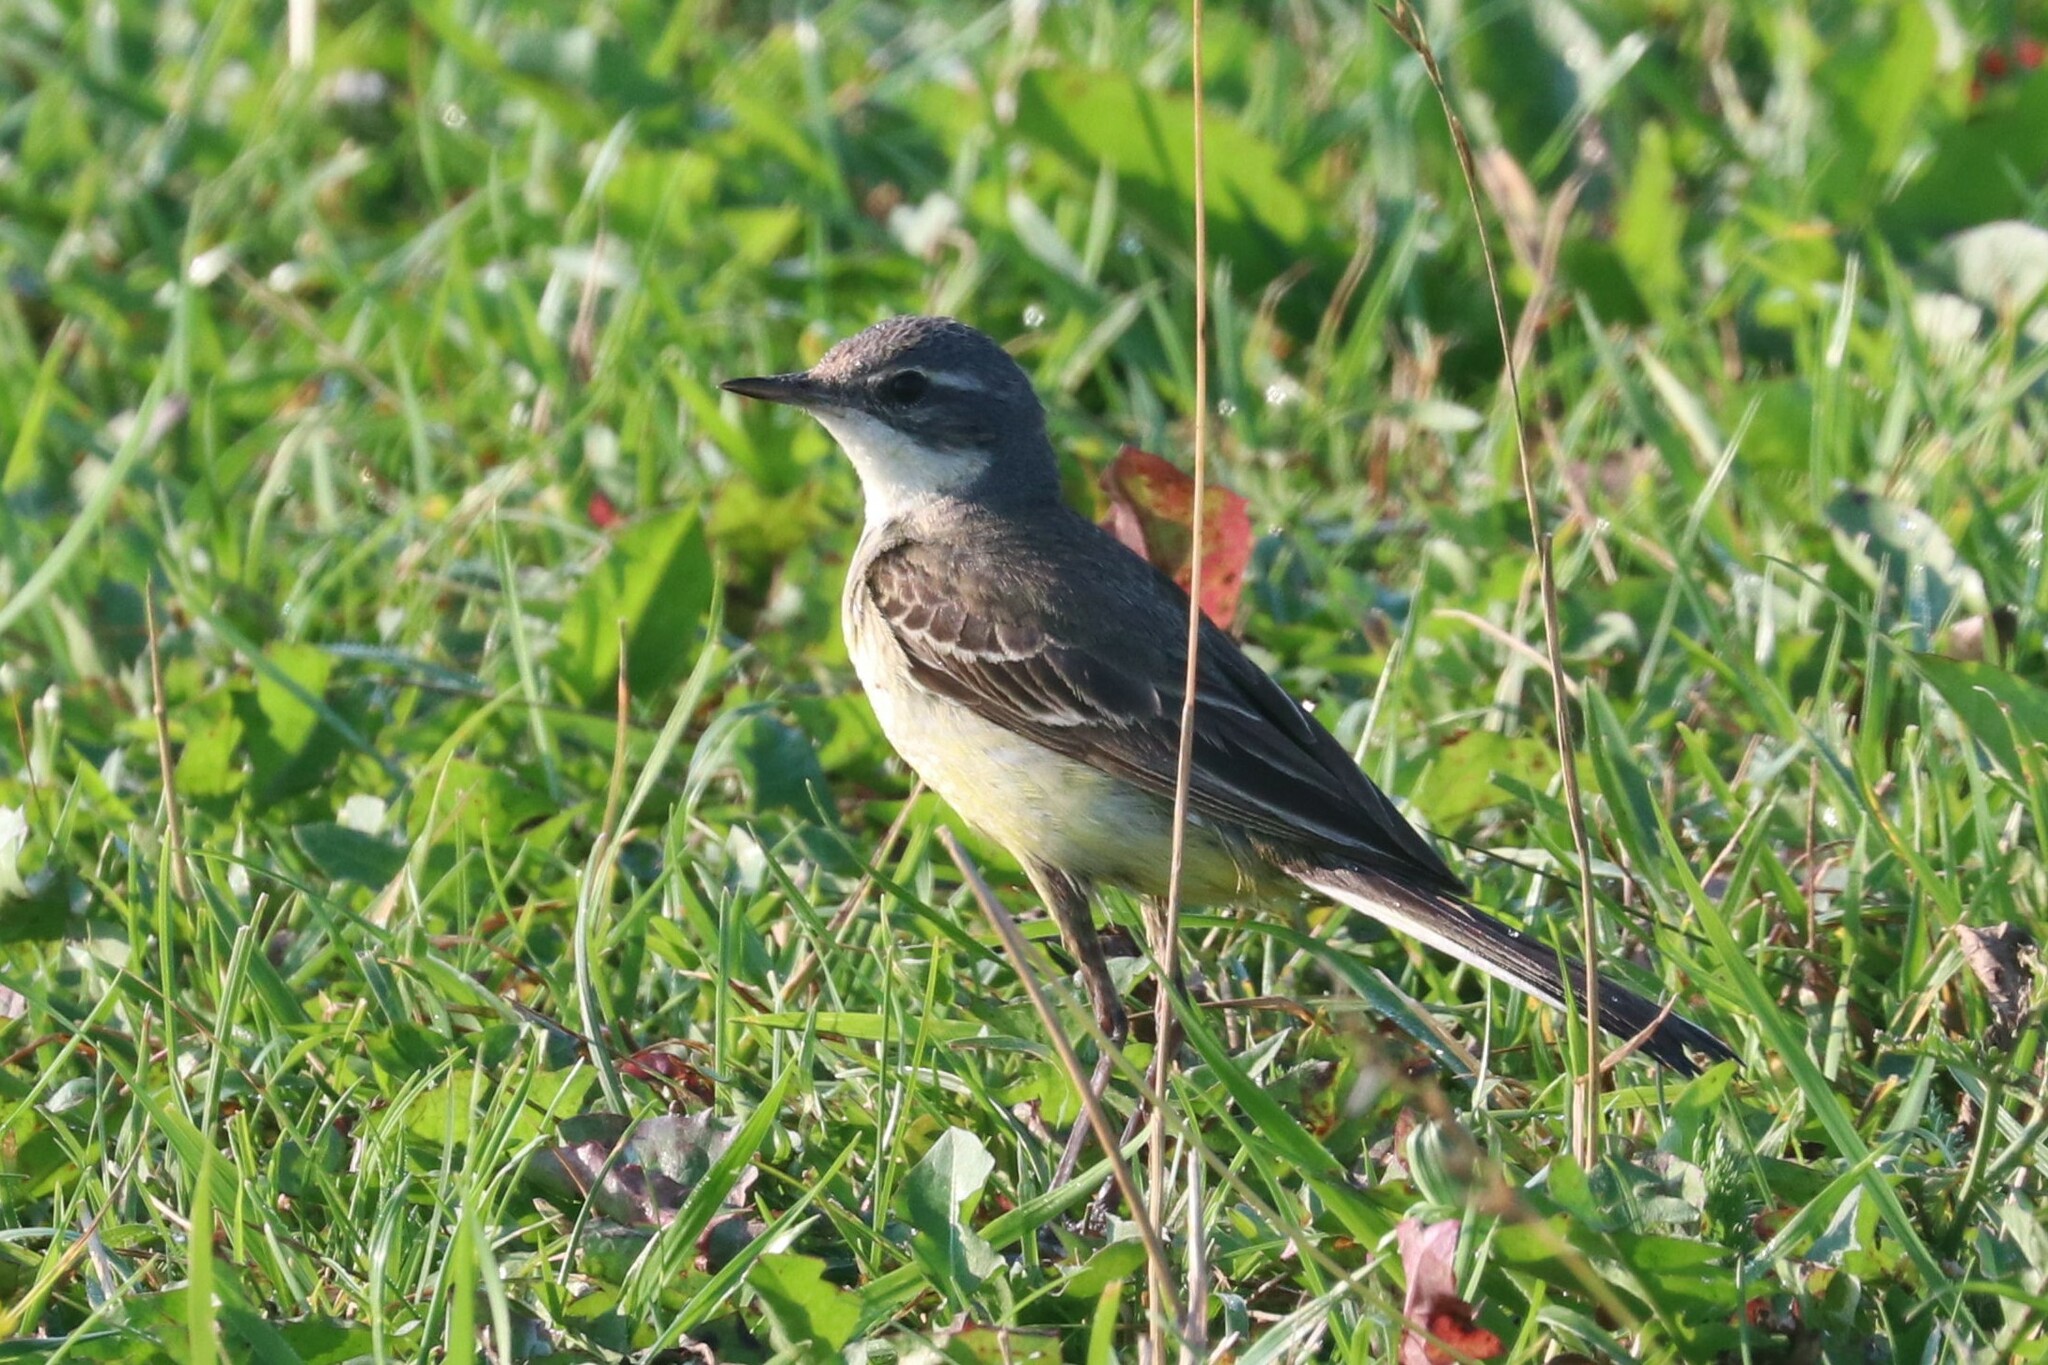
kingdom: Animalia
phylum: Chordata
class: Aves
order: Passeriformes
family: Motacillidae
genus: Motacilla
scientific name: Motacilla flava
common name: Western yellow wagtail
